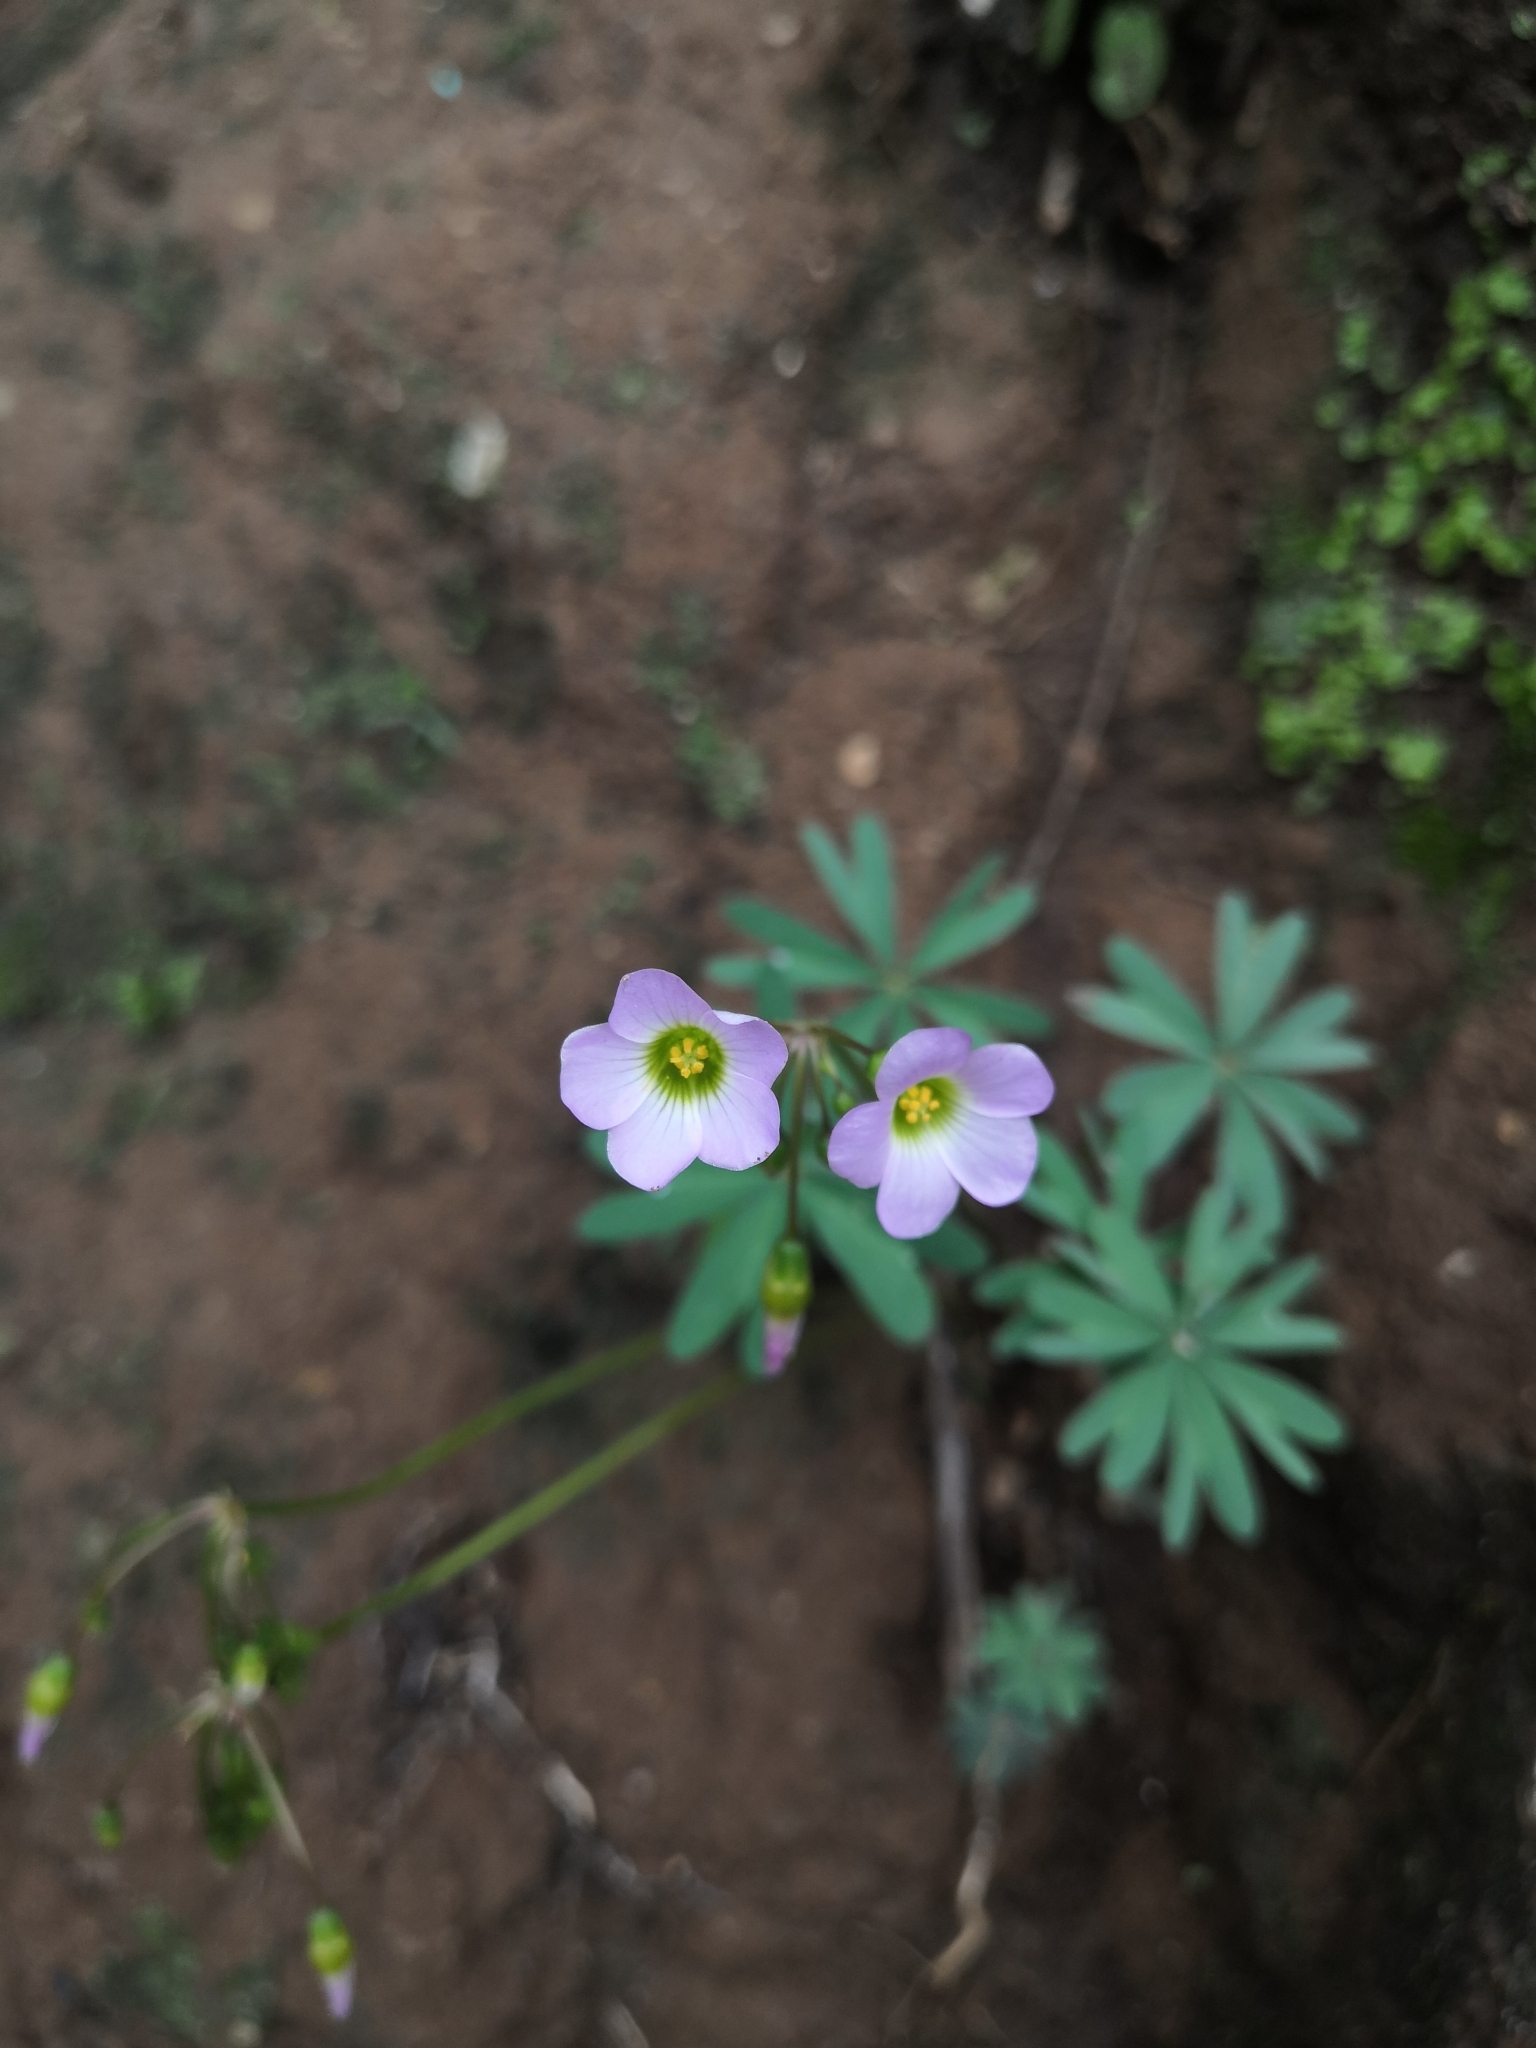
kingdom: Plantae
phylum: Tracheophyta
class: Magnoliopsida
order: Oxalidales
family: Oxalidaceae
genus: Oxalis
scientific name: Oxalis decaphylla
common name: Ten-leaved pink-sorrel
